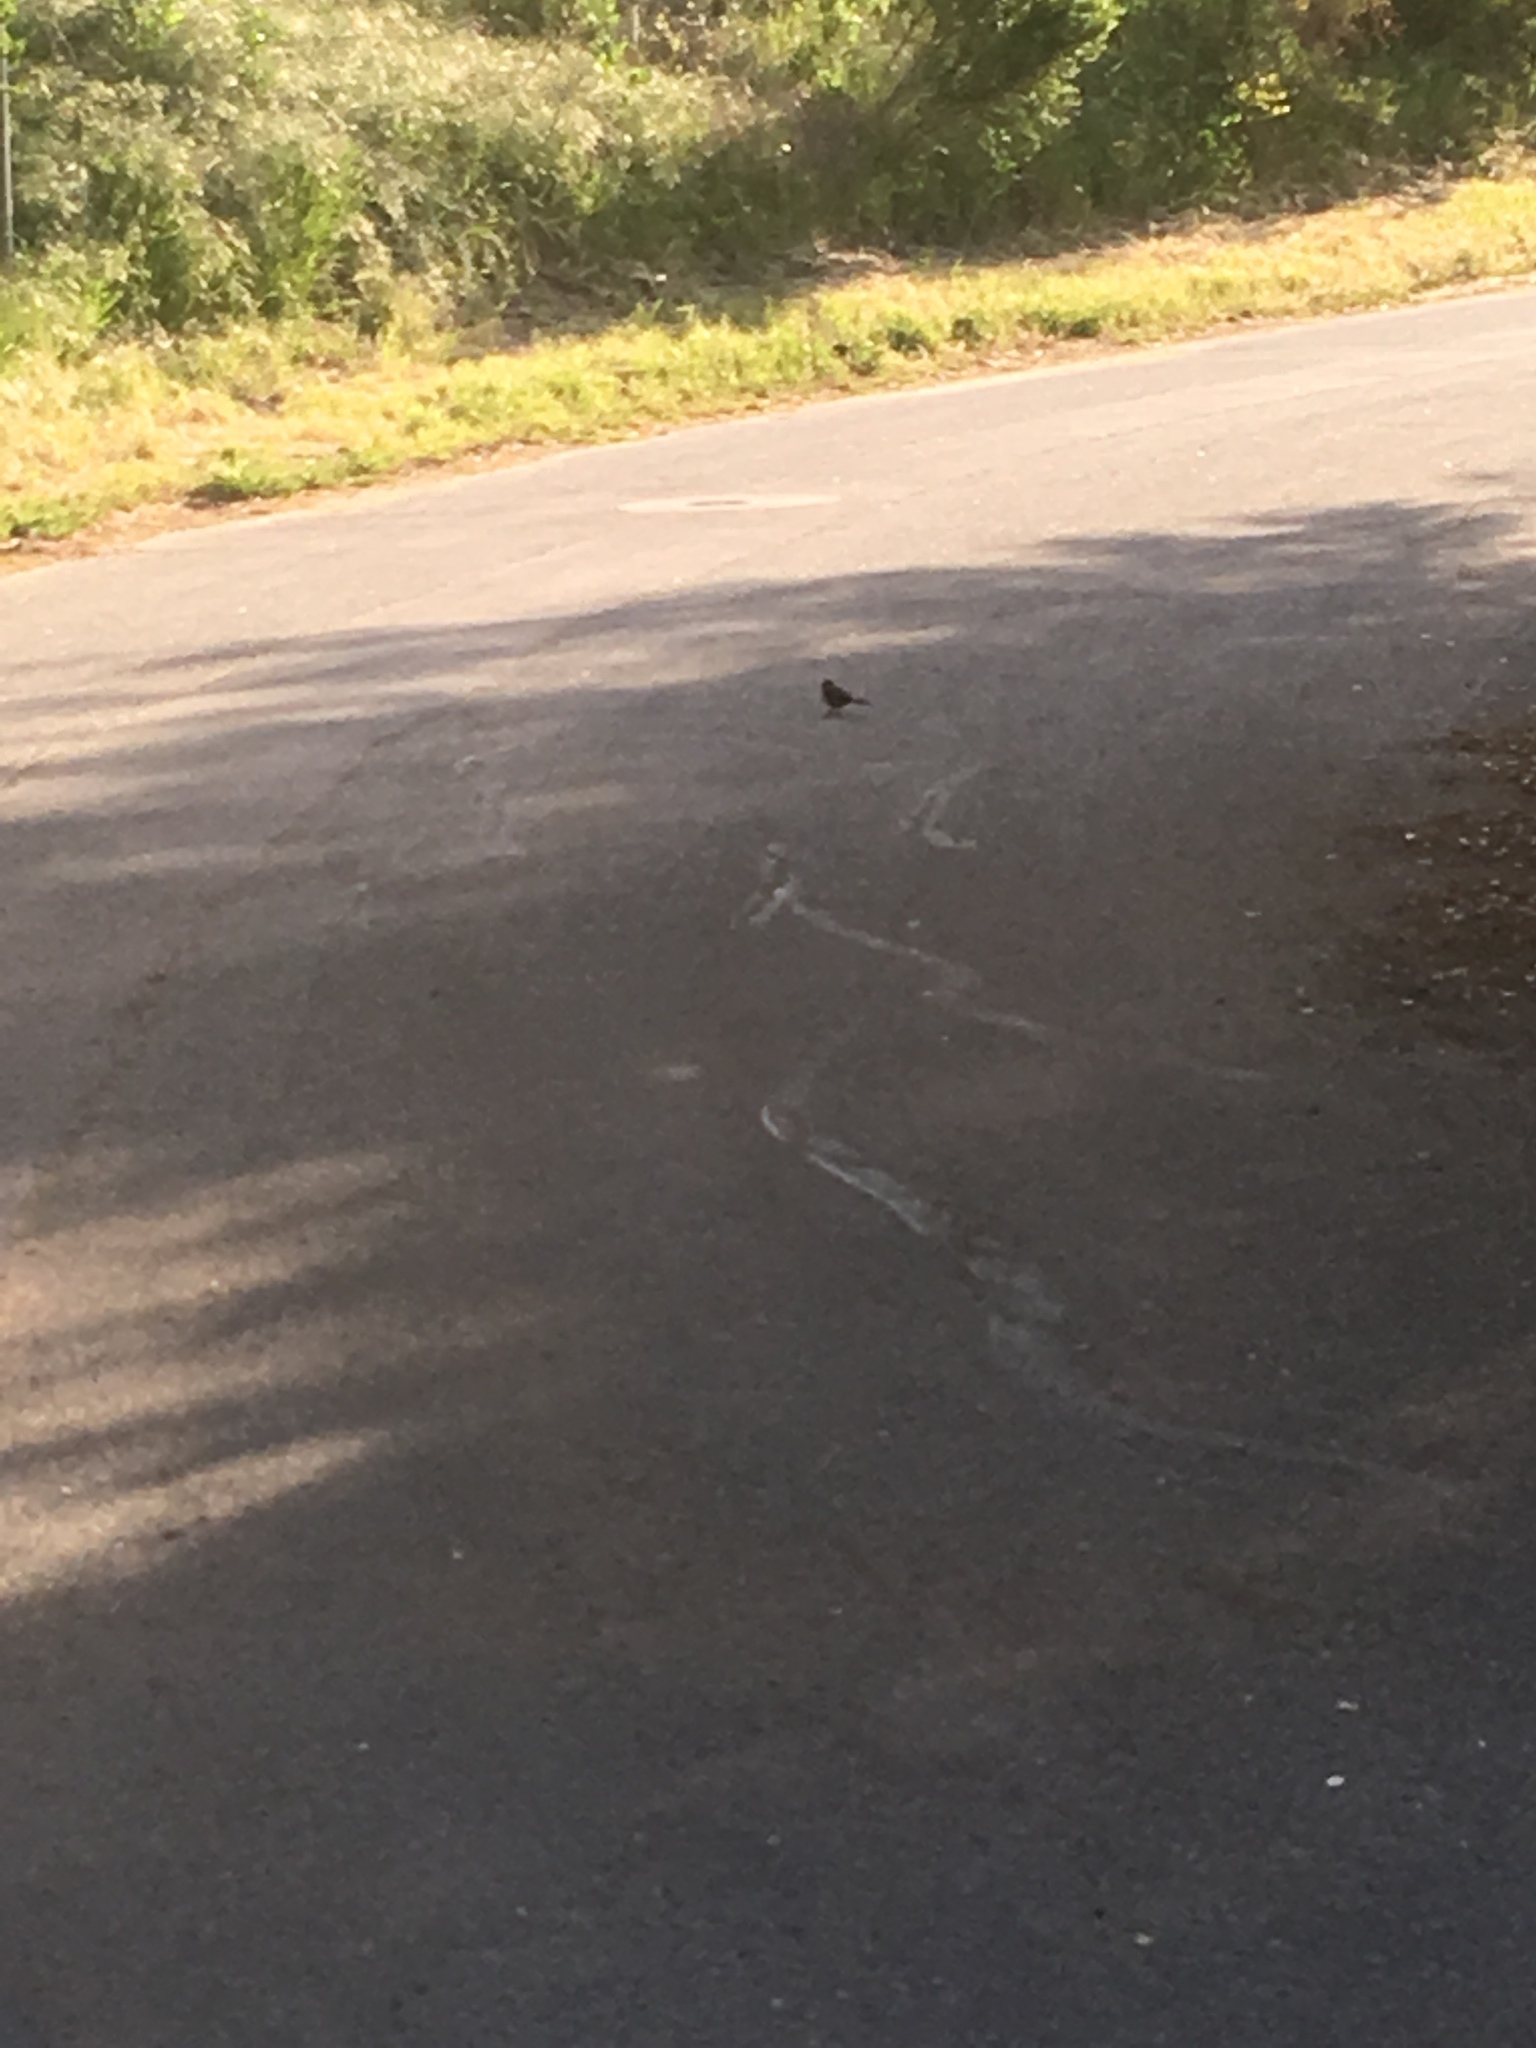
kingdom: Animalia
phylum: Chordata
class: Aves
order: Passeriformes
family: Passerellidae
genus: Melozone
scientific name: Melozone crissalis
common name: California towhee
